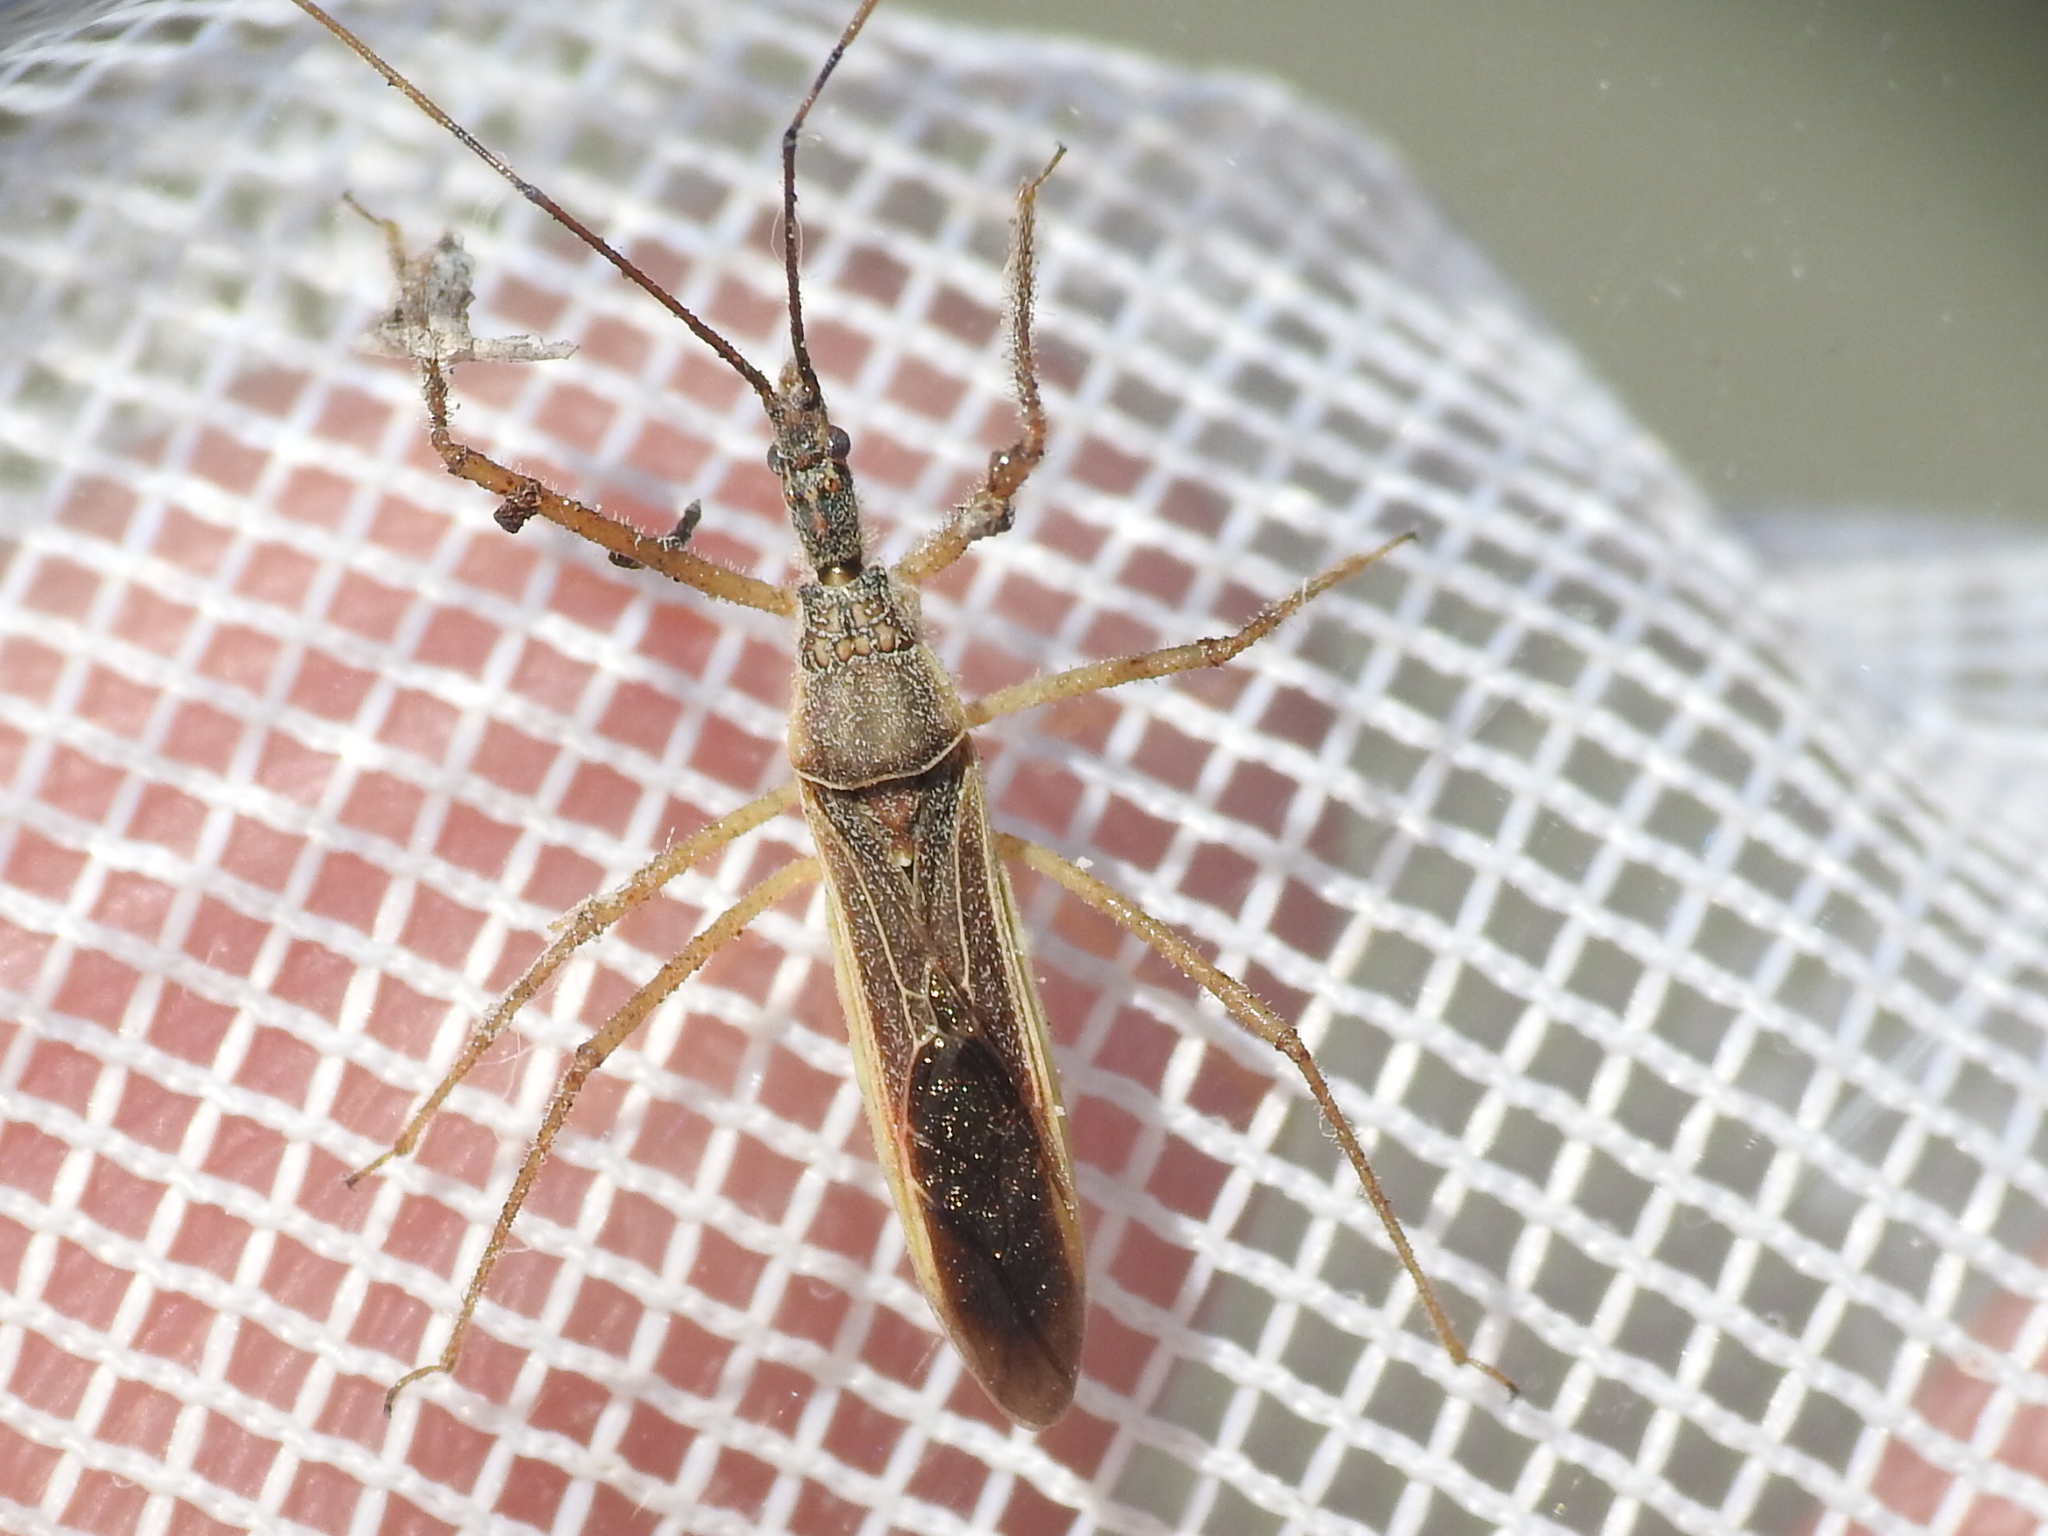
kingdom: Animalia
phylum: Arthropoda
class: Insecta
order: Hemiptera
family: Reduviidae
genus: Zelus
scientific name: Zelus cervicalis
